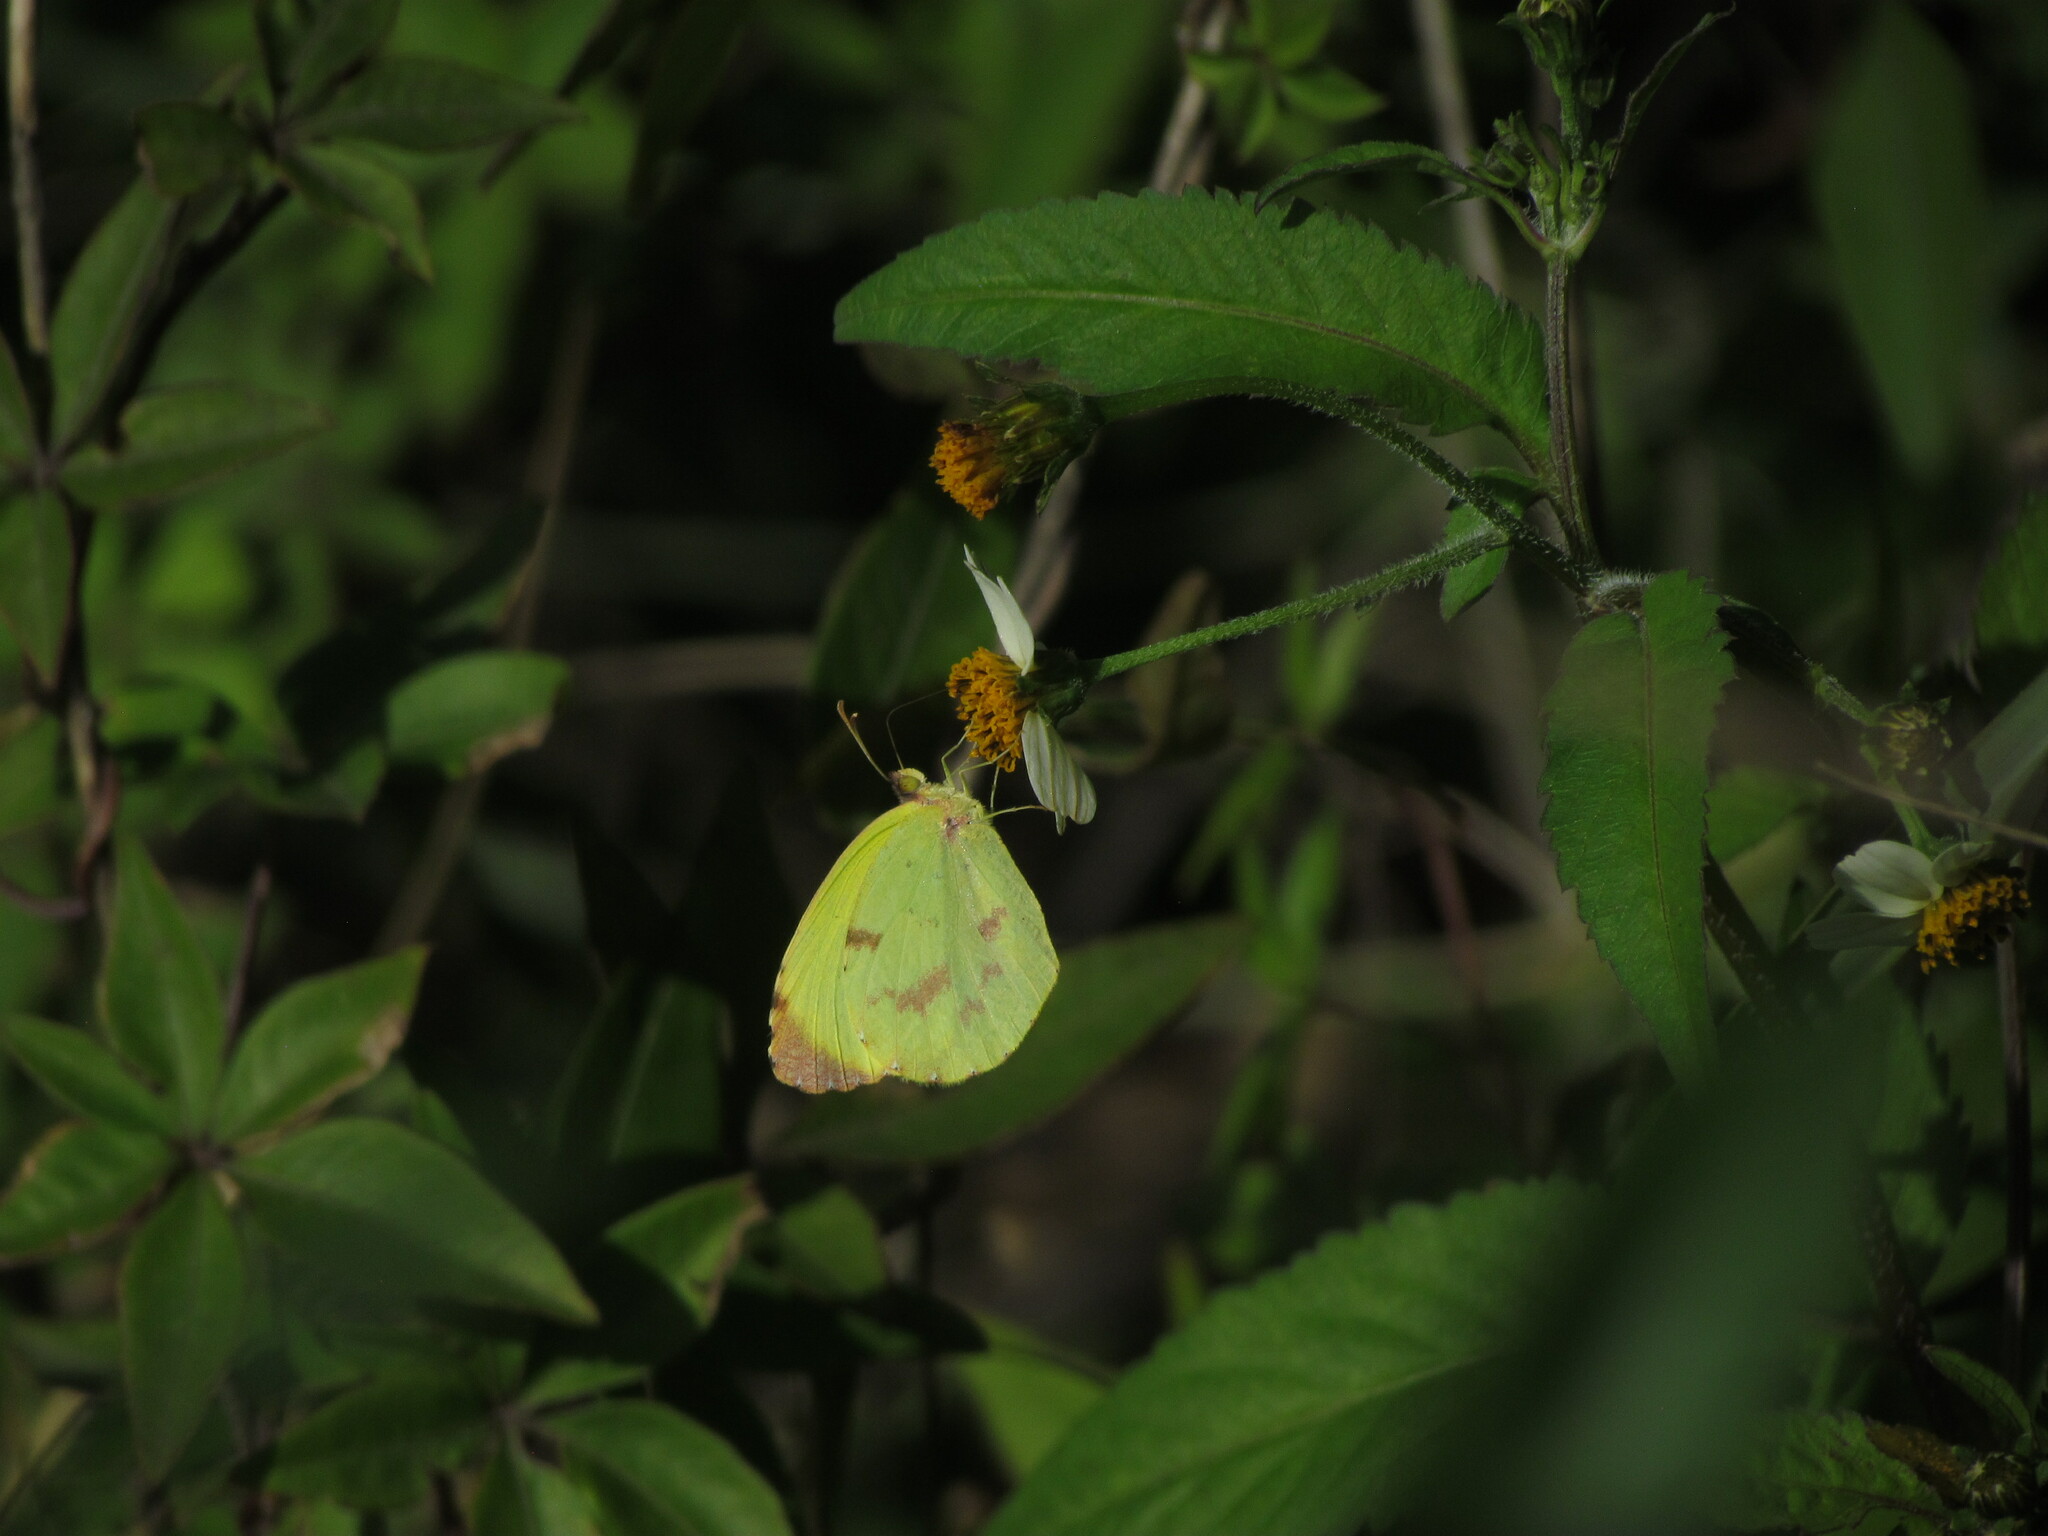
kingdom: Animalia
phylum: Arthropoda
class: Insecta
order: Lepidoptera
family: Pieridae
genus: Teriocolias
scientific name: Teriocolias
